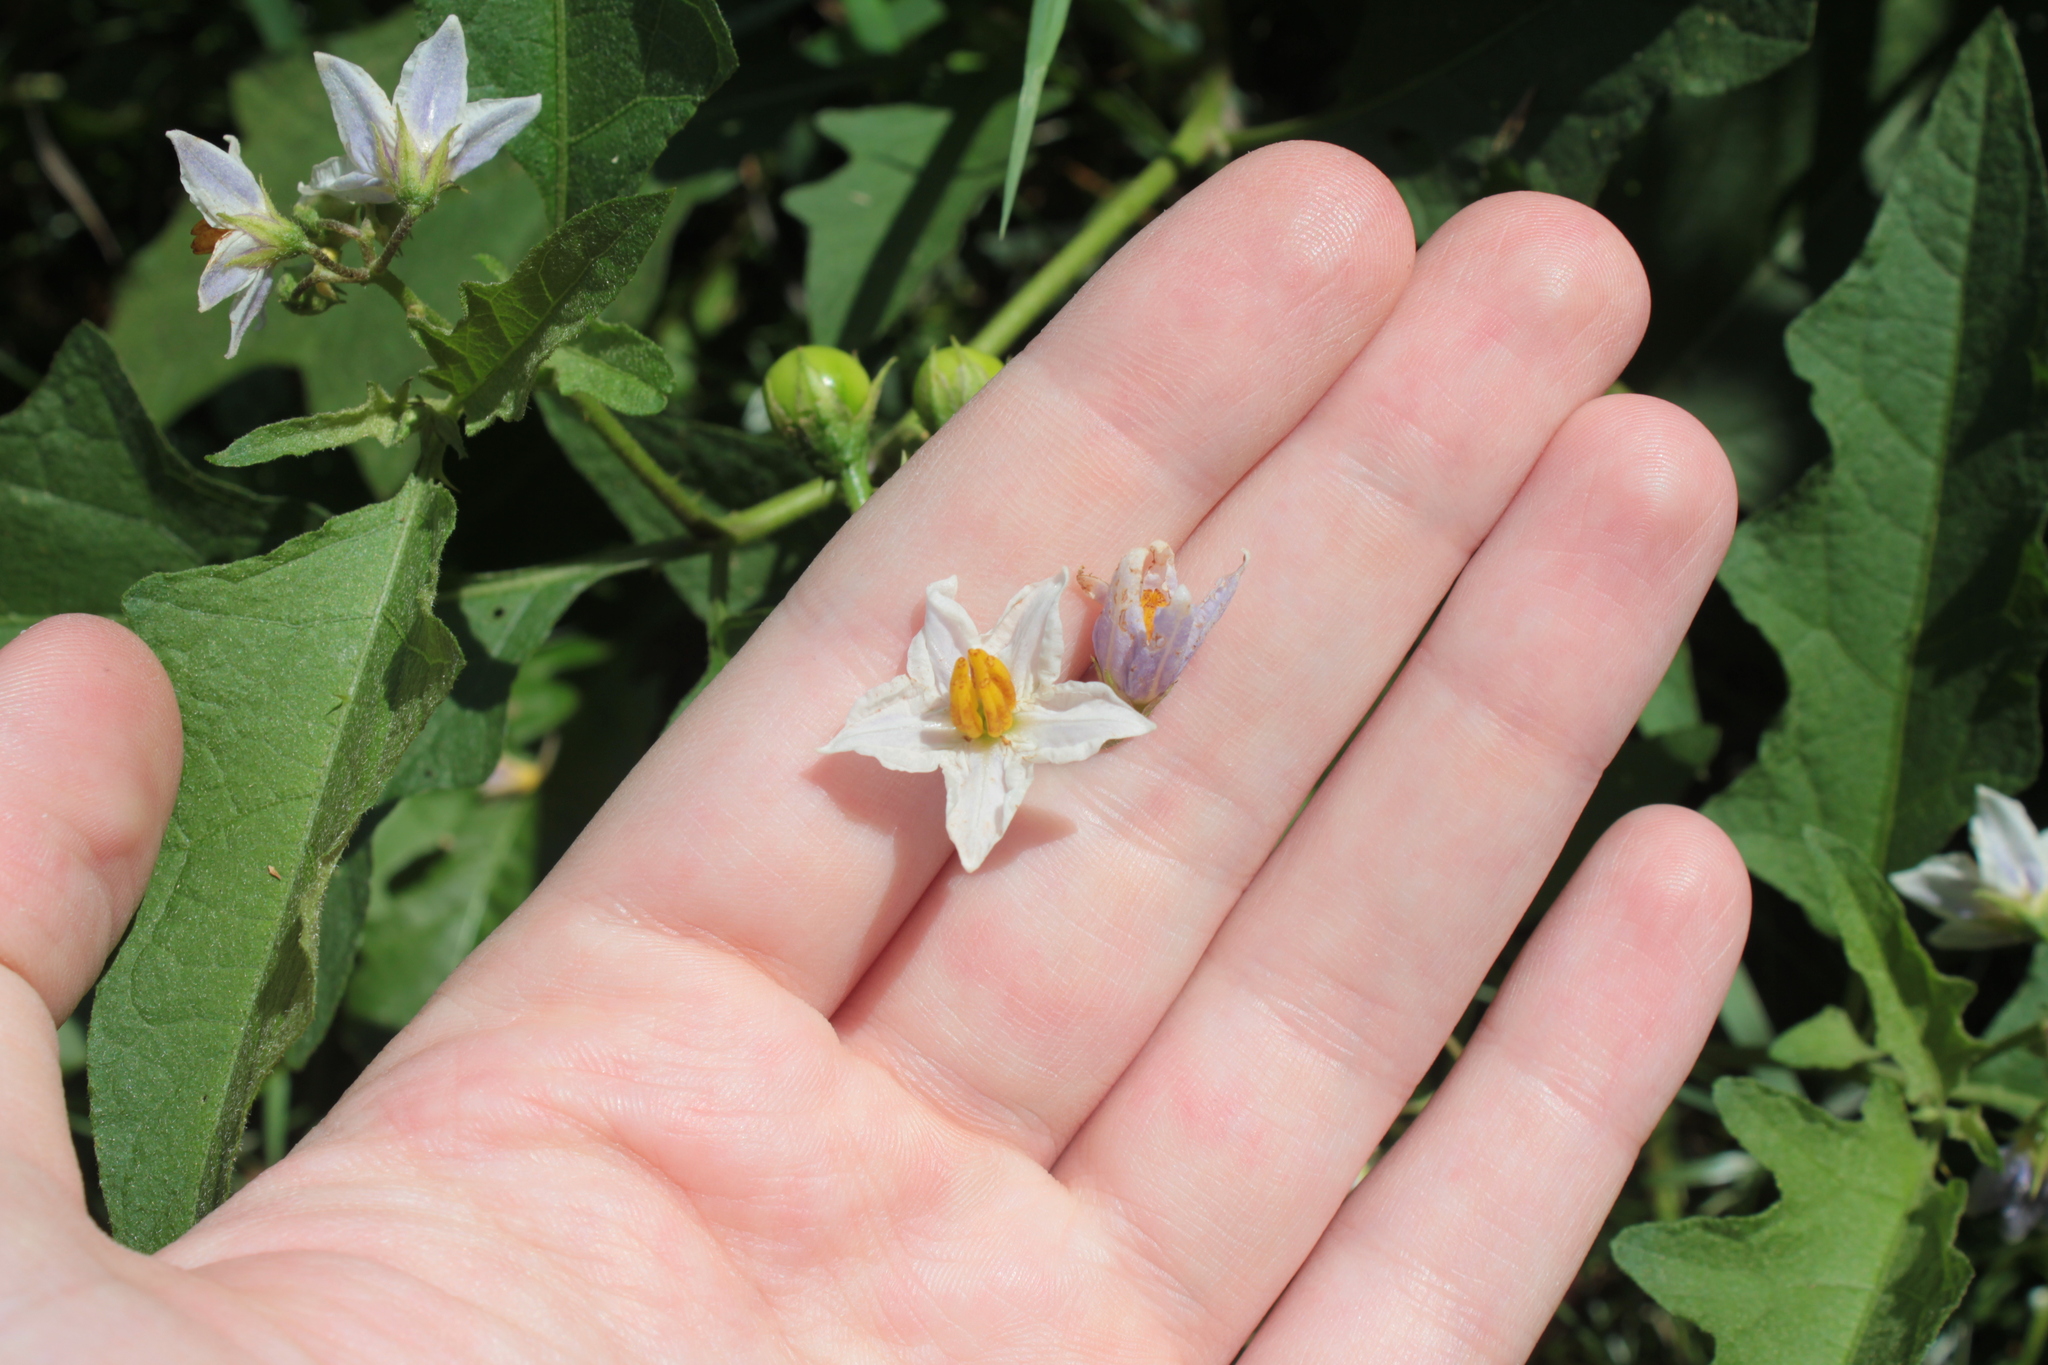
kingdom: Plantae
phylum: Tracheophyta
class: Magnoliopsida
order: Solanales
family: Solanaceae
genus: Solanum
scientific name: Solanum carolinense
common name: Horse-nettle
